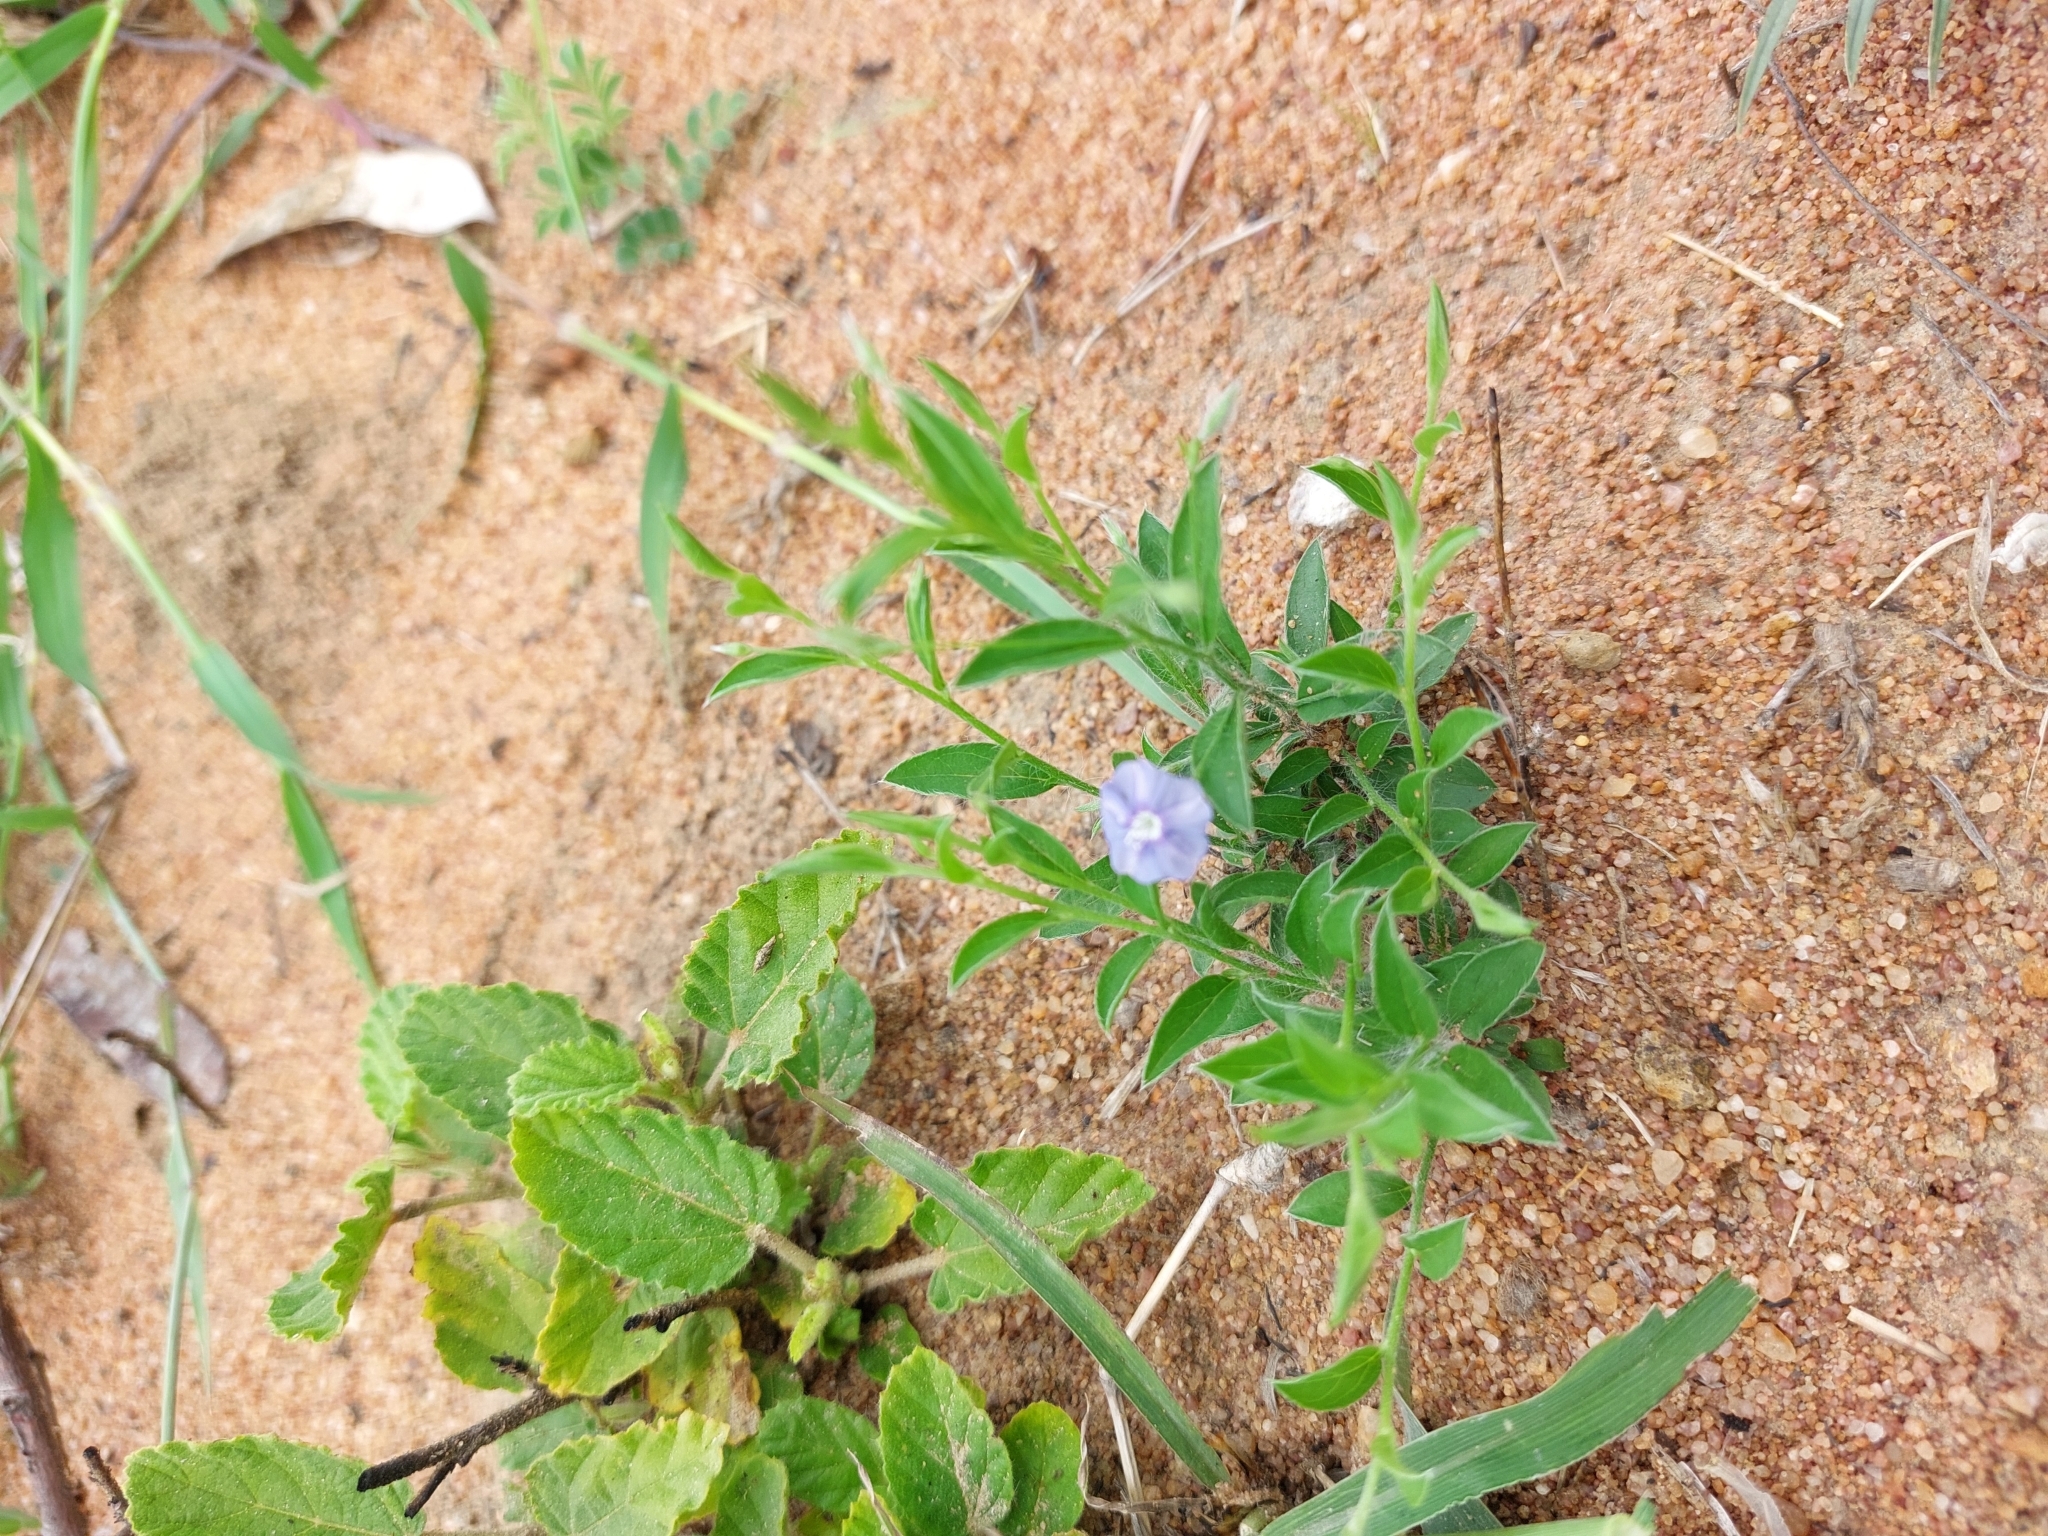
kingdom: Plantae
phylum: Tracheophyta
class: Magnoliopsida
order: Solanales
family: Convolvulaceae
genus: Evolvulus
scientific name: Evolvulus alsinoides
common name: Slender dwarf morning-glory
